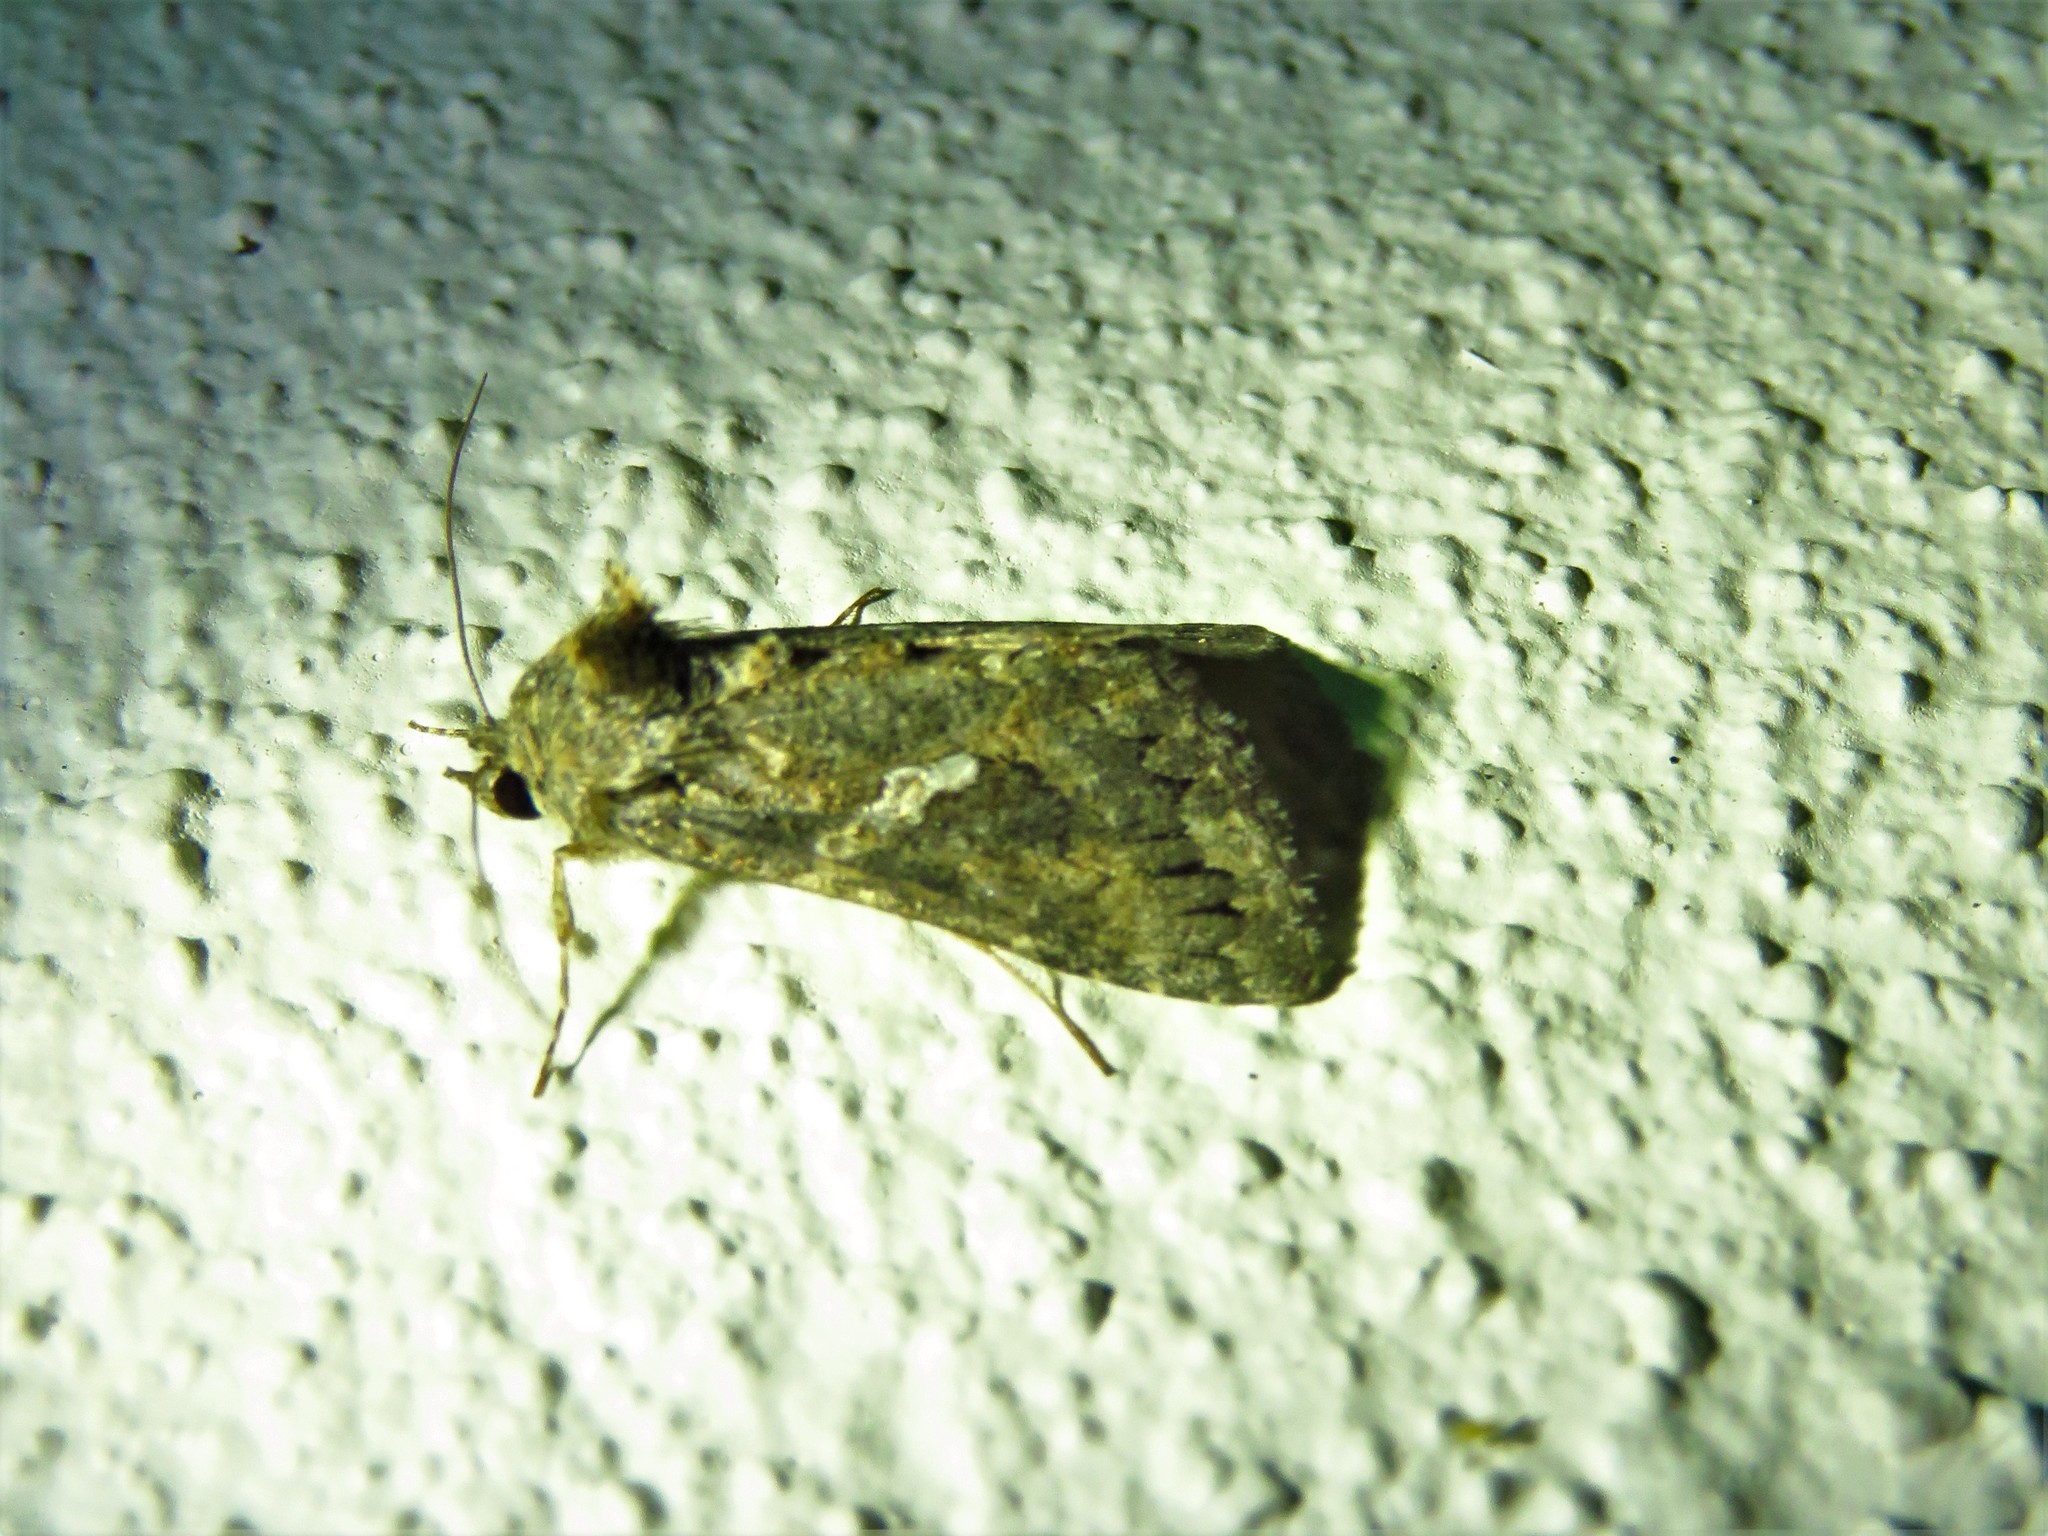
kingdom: Animalia
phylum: Arthropoda
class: Insecta
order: Lepidoptera
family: Noctuidae
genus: Trichoplusia
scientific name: Trichoplusia ni
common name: Ni moth
